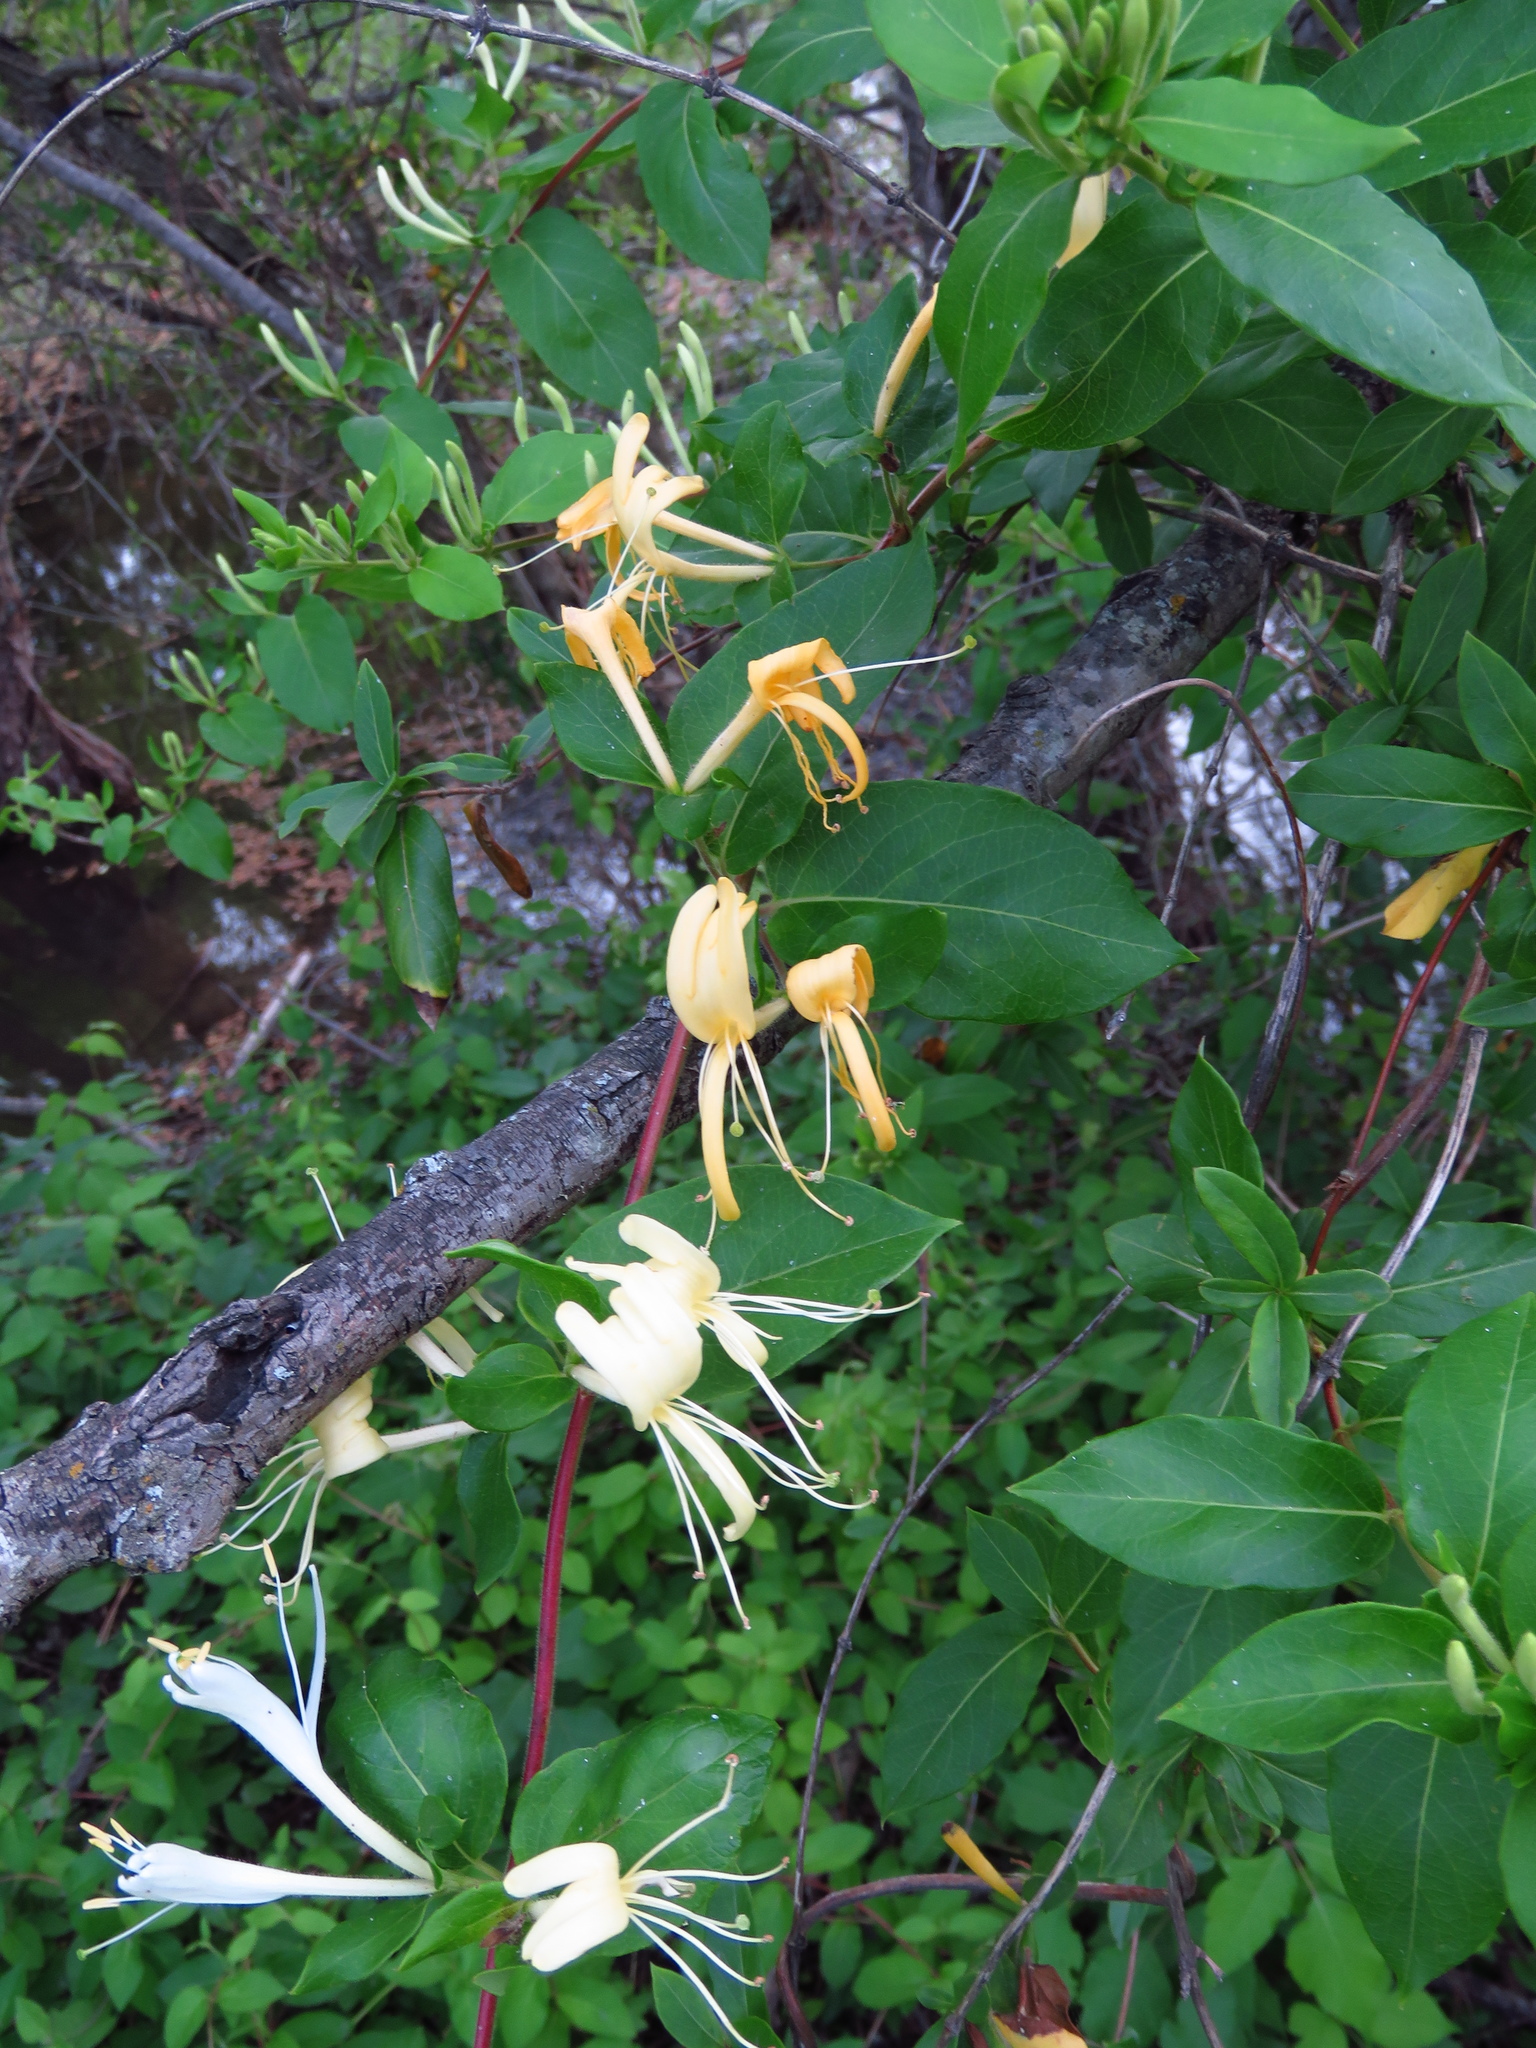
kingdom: Plantae
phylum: Tracheophyta
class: Magnoliopsida
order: Dipsacales
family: Caprifoliaceae
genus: Lonicera
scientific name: Lonicera japonica
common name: Japanese honeysuckle
